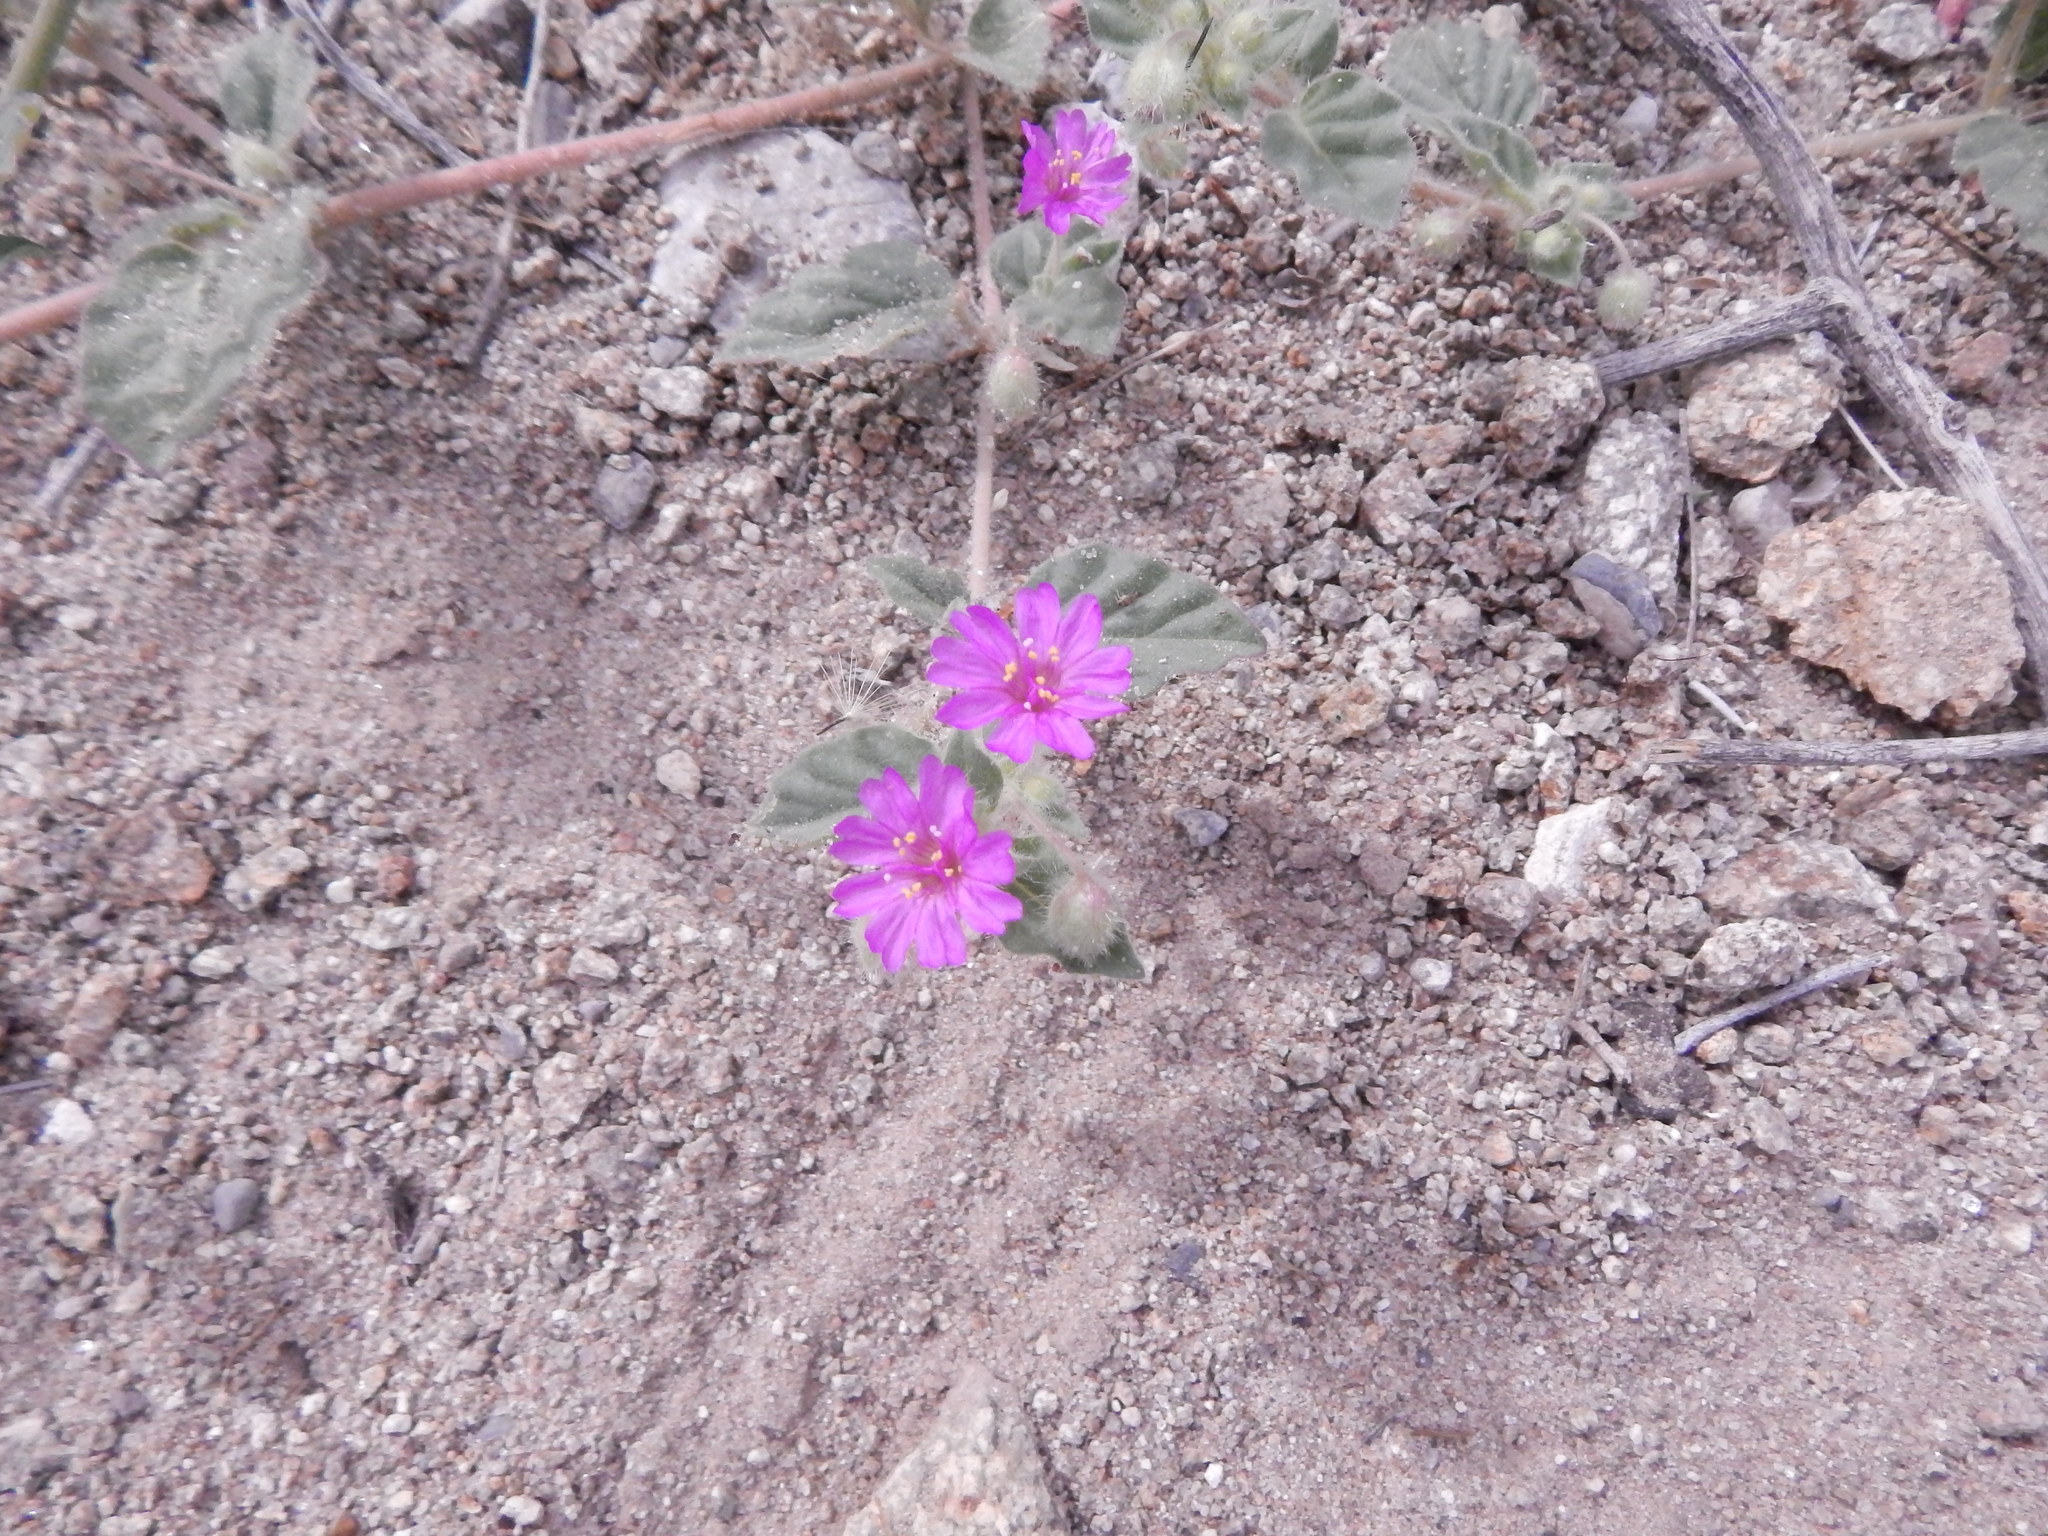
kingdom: Plantae
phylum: Tracheophyta
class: Magnoliopsida
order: Caryophyllales
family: Nyctaginaceae
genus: Allionia
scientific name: Allionia incarnata
